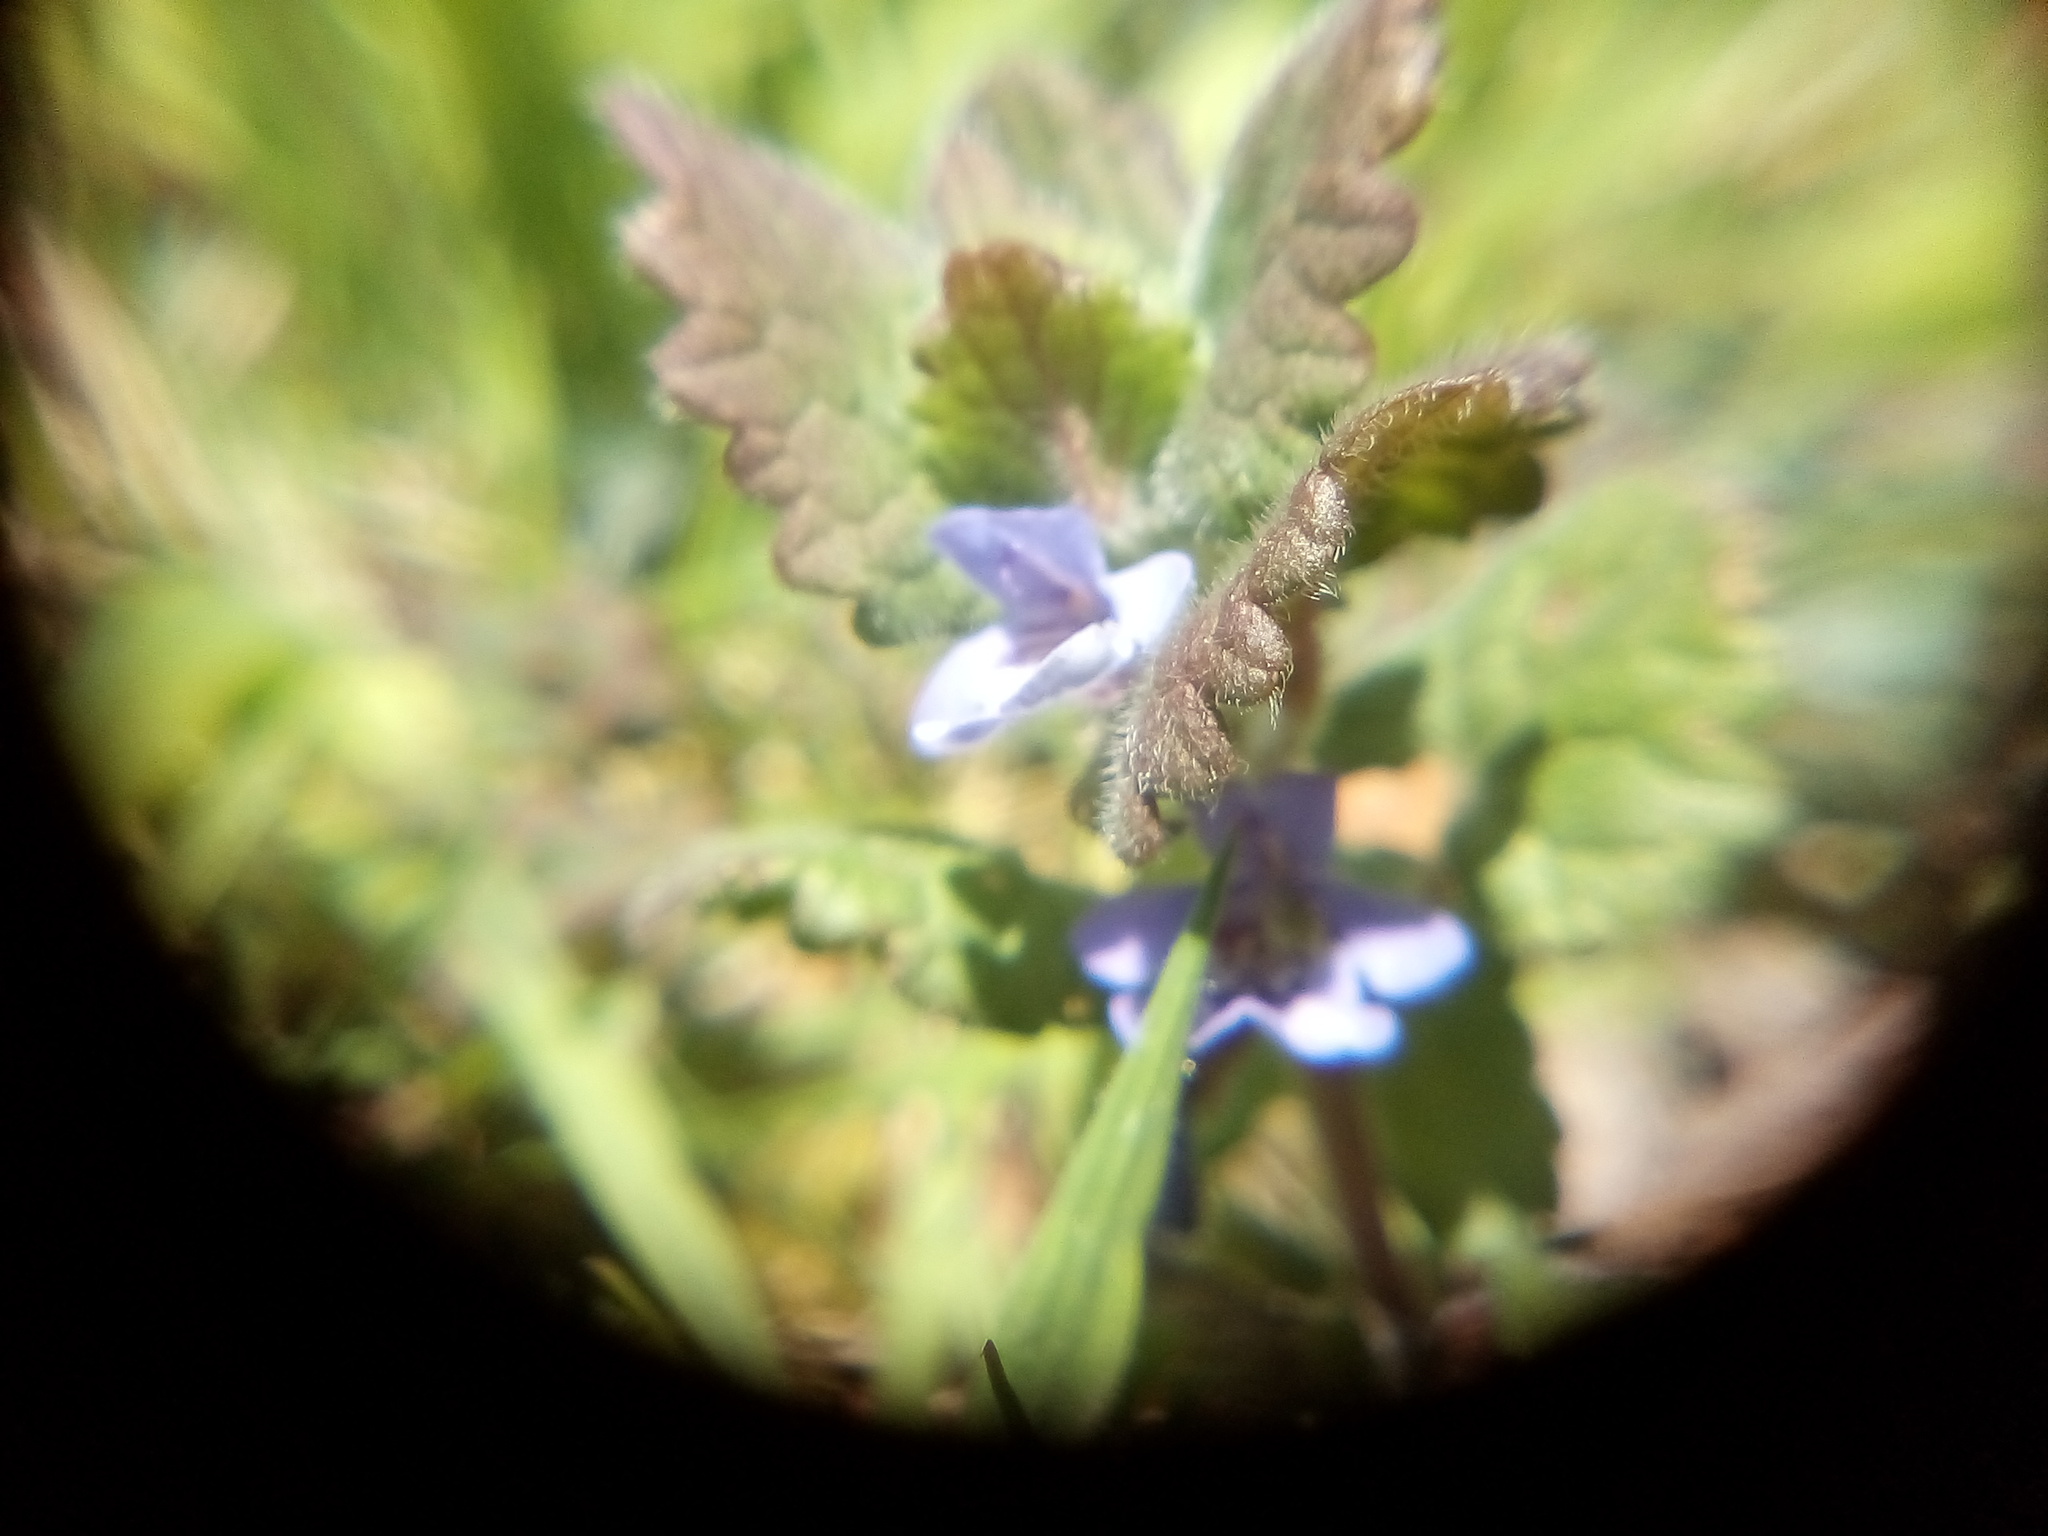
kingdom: Plantae
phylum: Tracheophyta
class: Magnoliopsida
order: Lamiales
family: Lamiaceae
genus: Glechoma
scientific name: Glechoma hederacea
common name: Ground ivy
